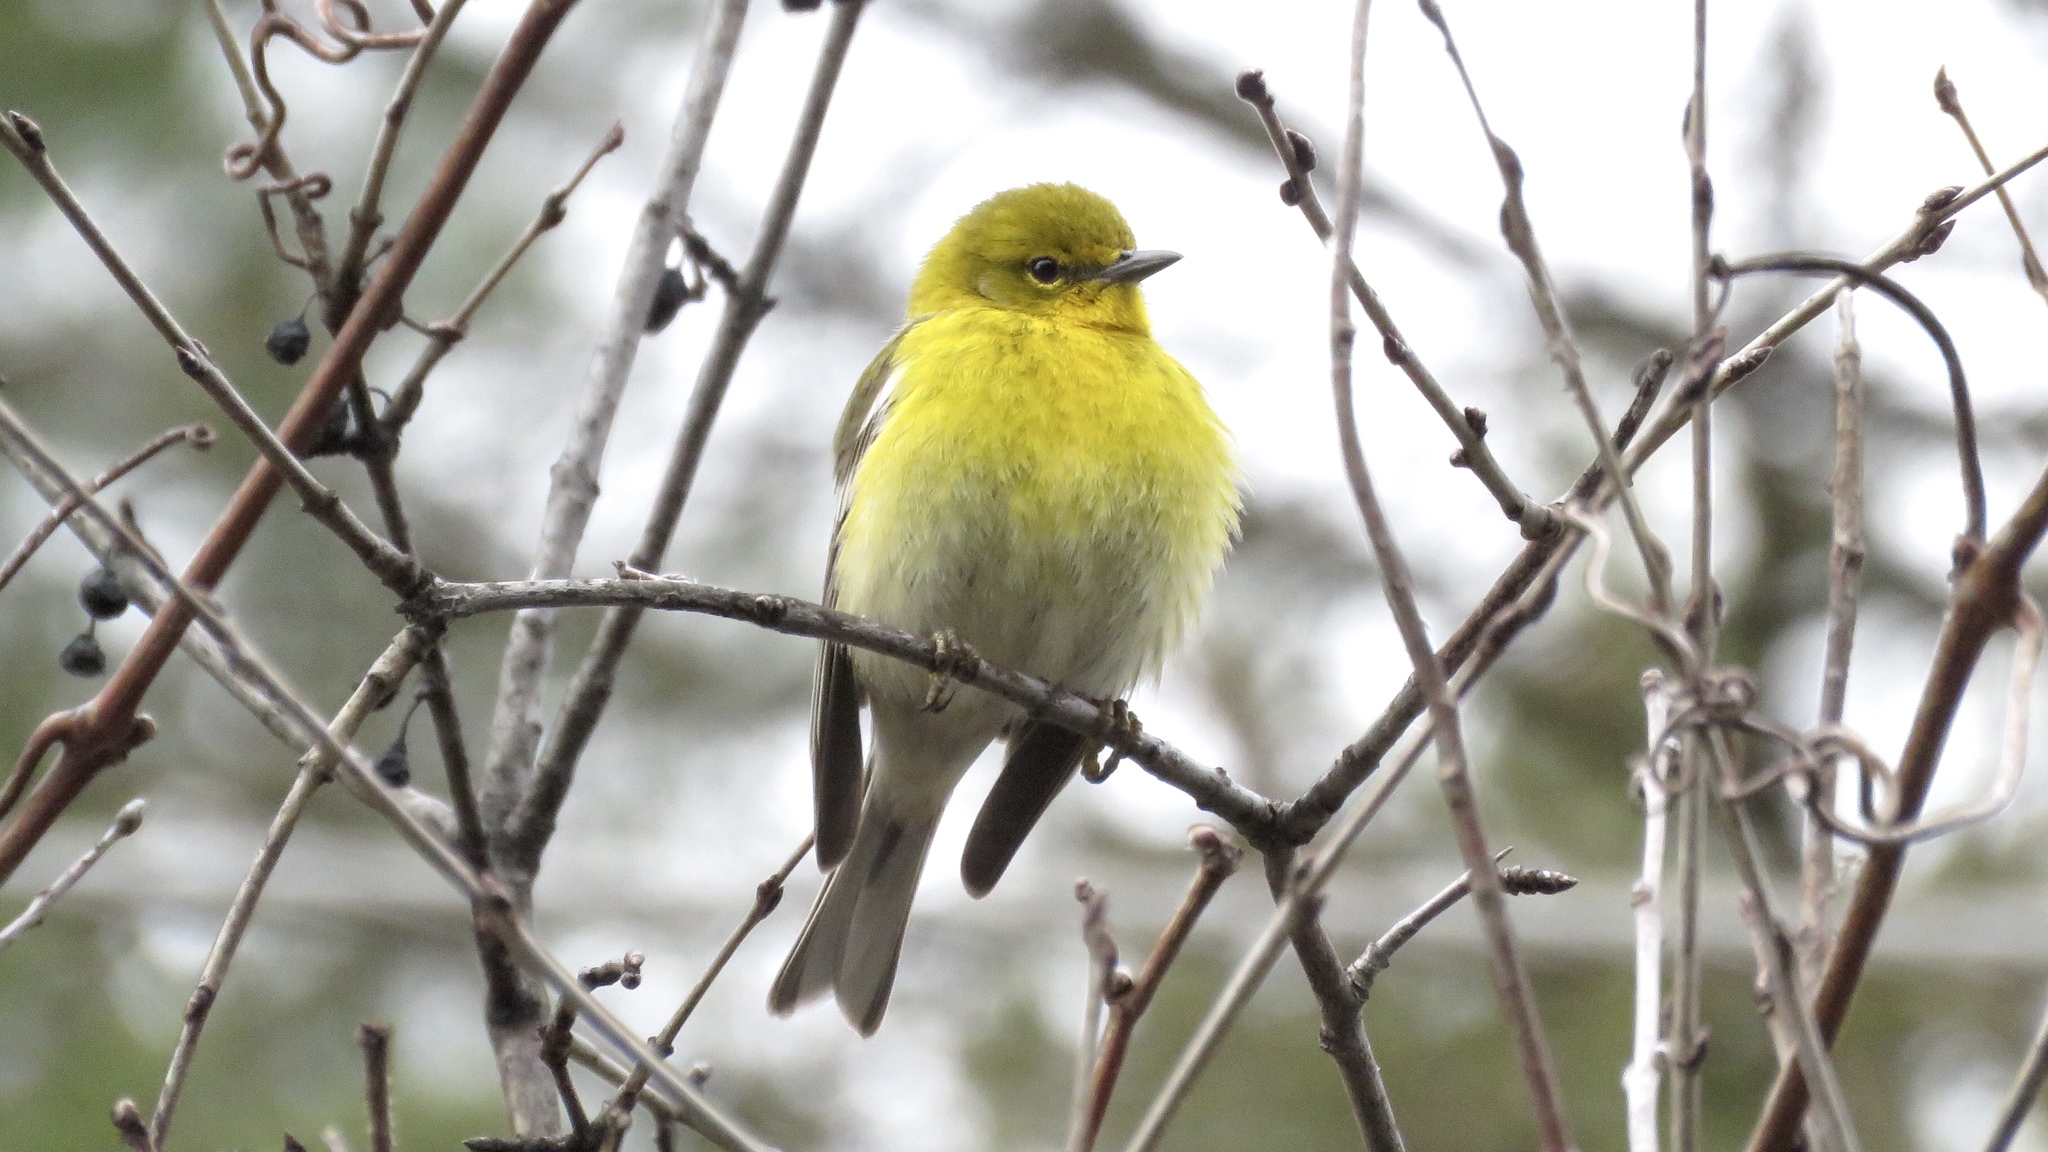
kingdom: Animalia
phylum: Chordata
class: Aves
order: Passeriformes
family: Parulidae
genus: Setophaga
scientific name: Setophaga pinus
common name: Pine warbler
